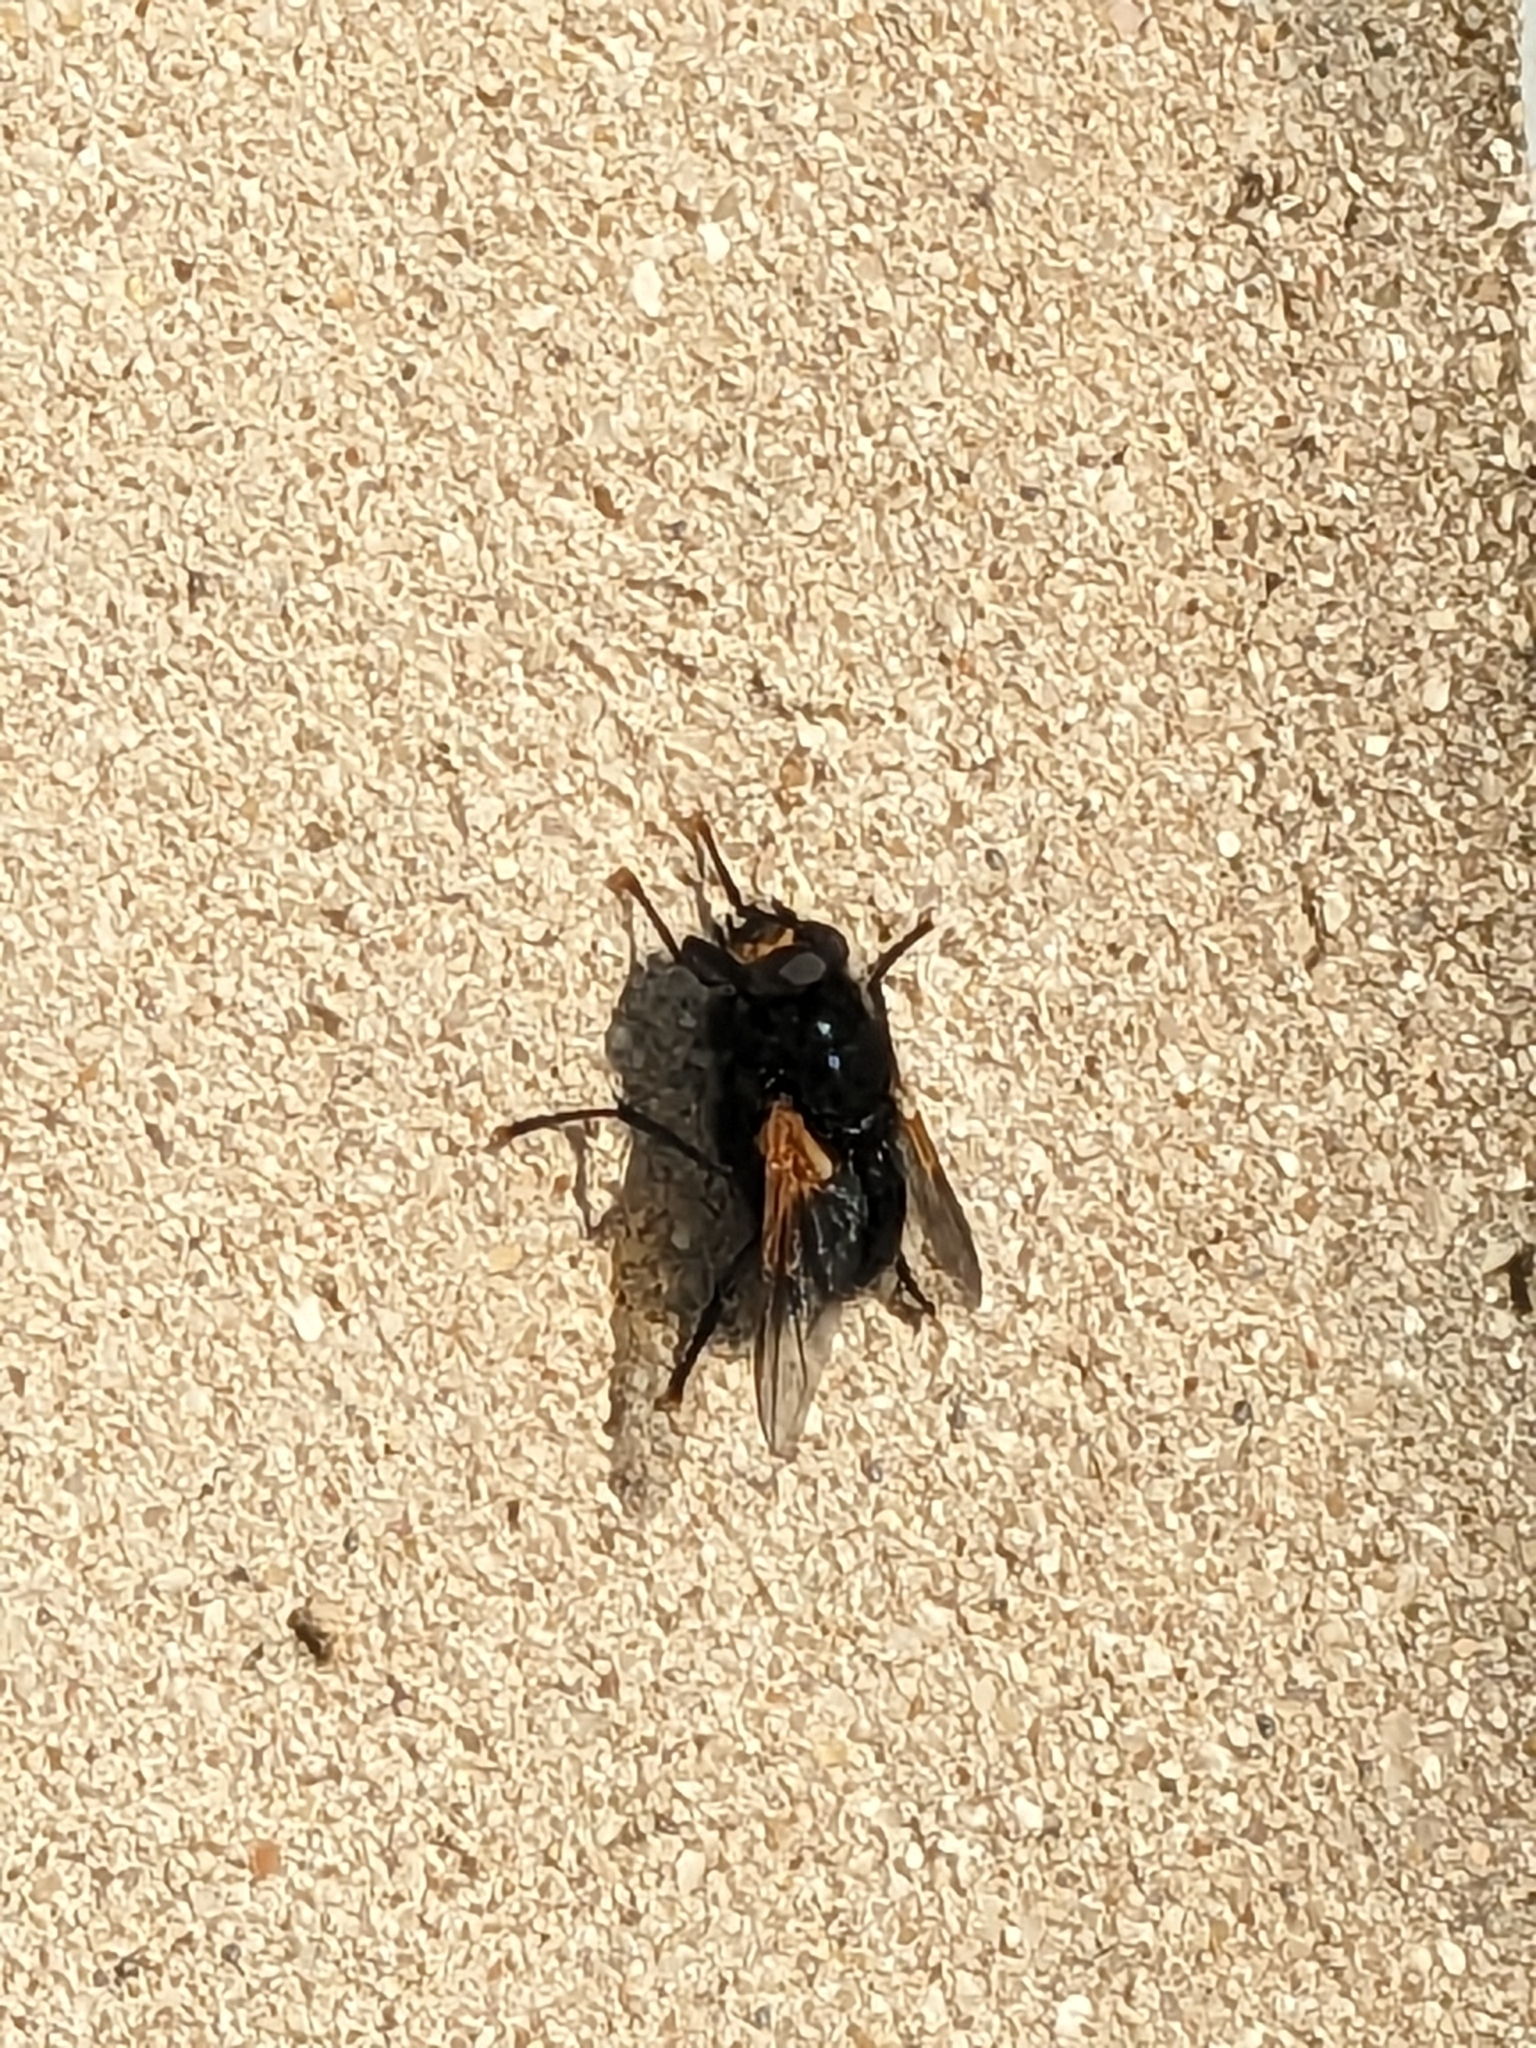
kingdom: Animalia
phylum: Arthropoda
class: Insecta
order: Diptera
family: Muscidae
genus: Mesembrina
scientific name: Mesembrina meridiana
